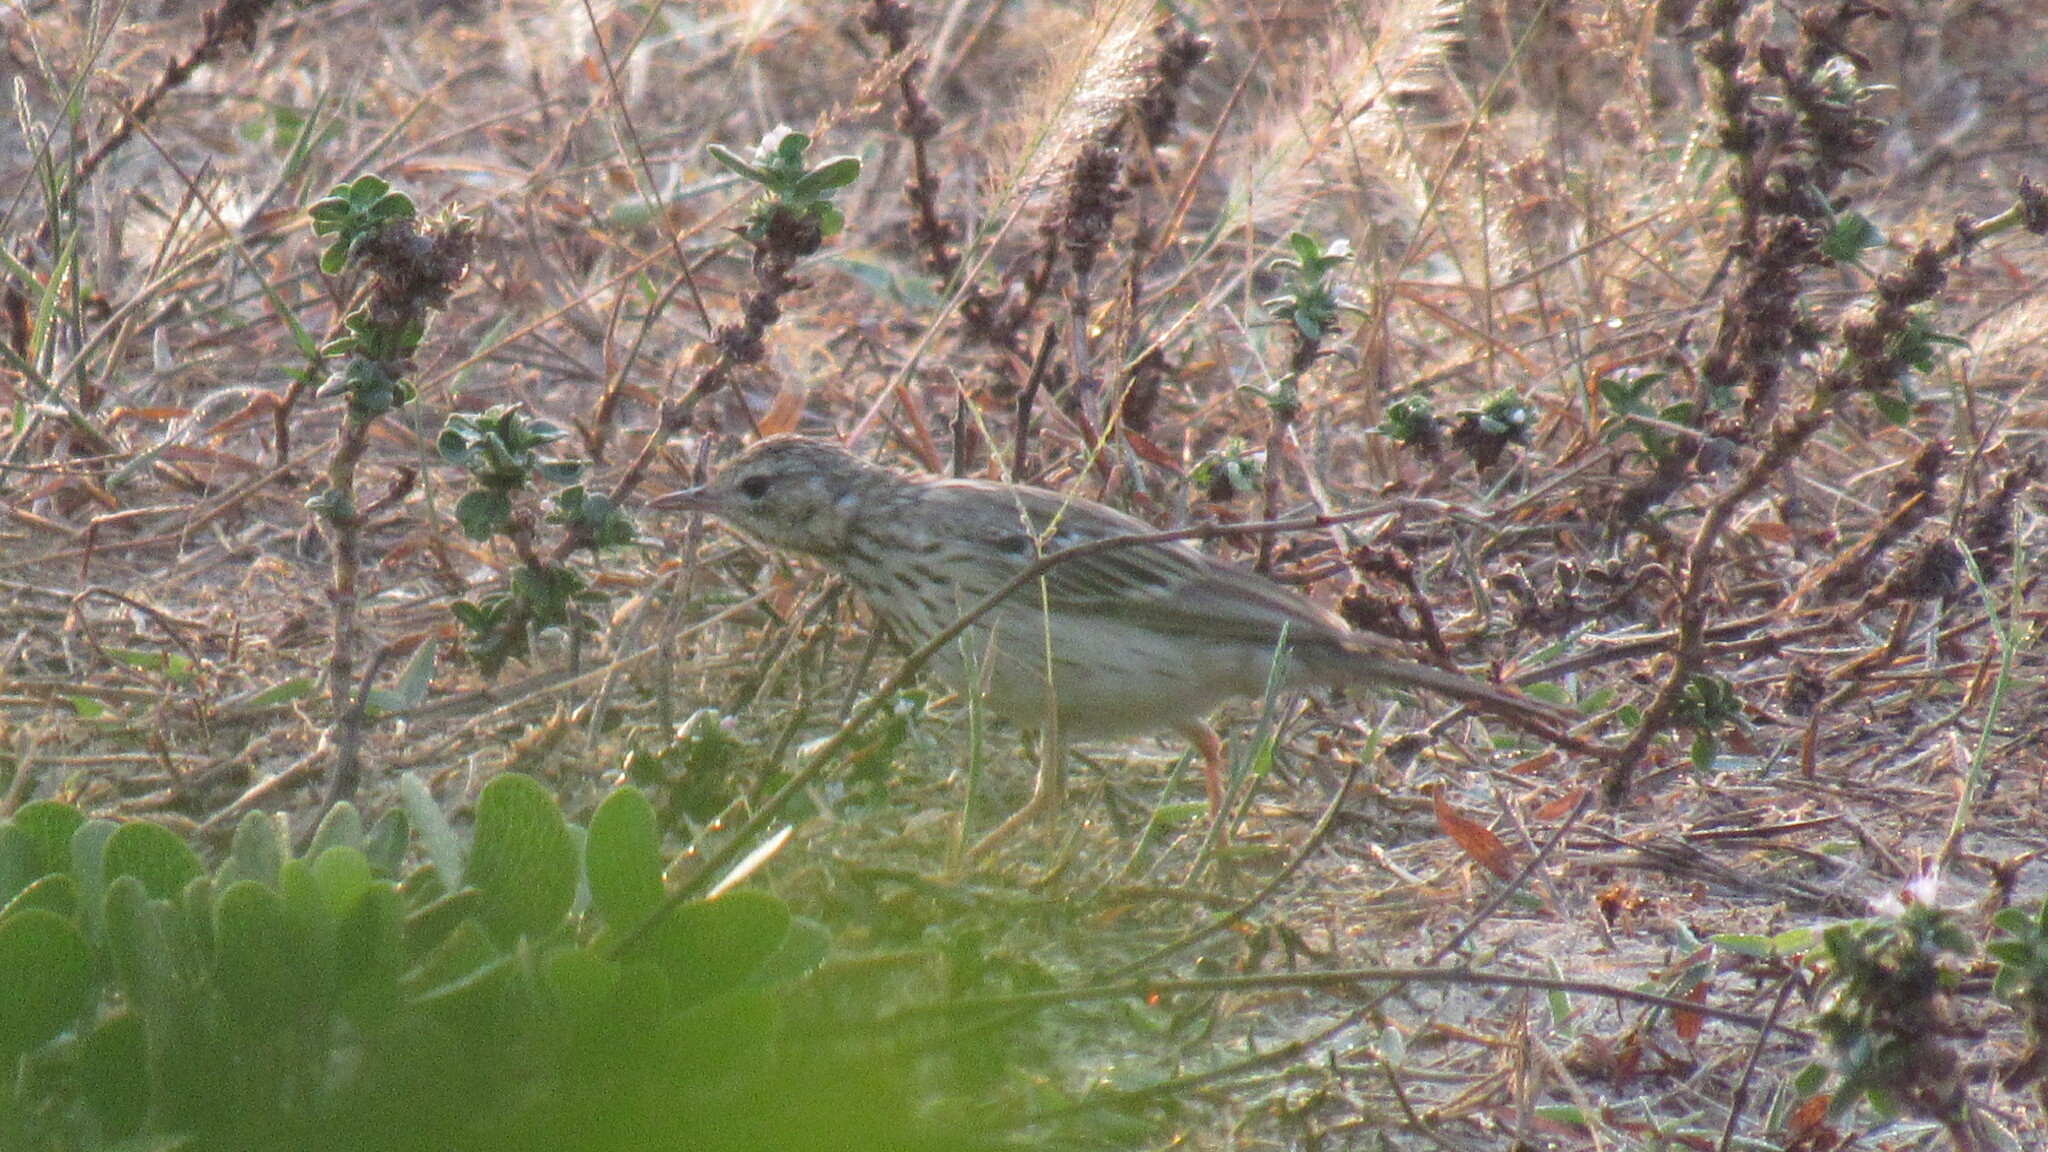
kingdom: Animalia
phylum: Chordata
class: Aves
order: Passeriformes
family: Motacillidae
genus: Anthus
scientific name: Anthus trivialis
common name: Tree pipit
